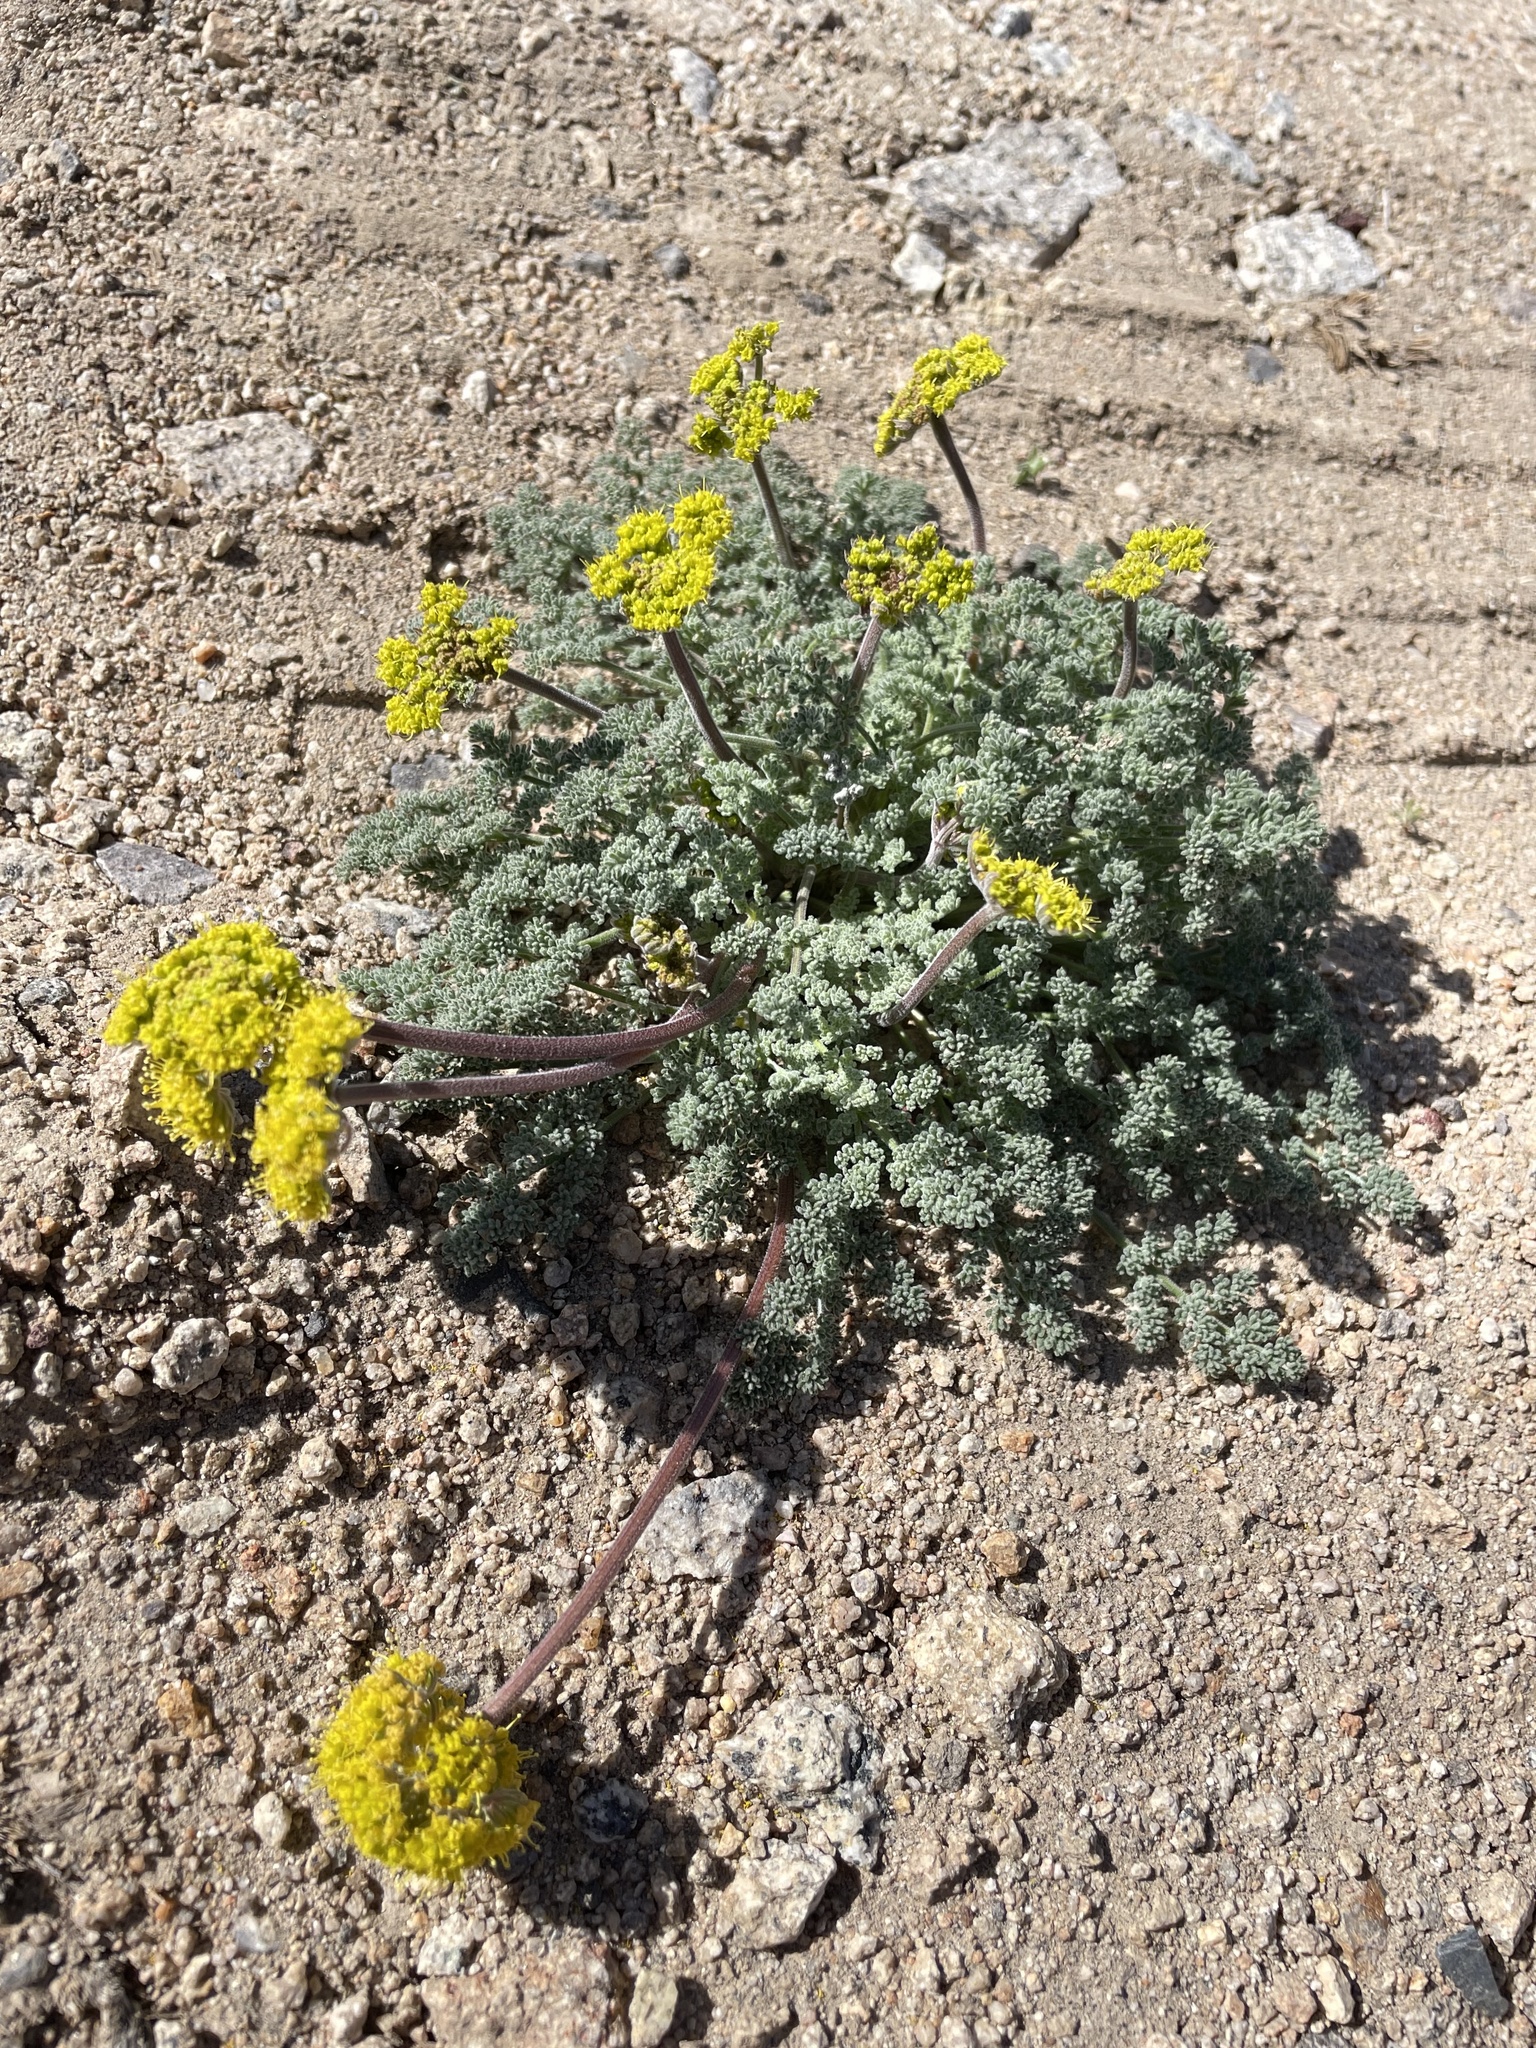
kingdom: Plantae
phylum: Tracheophyta
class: Magnoliopsida
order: Apiales
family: Apiaceae
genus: Lomatium
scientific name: Lomatium foeniculaceum
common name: Desert-parsley
